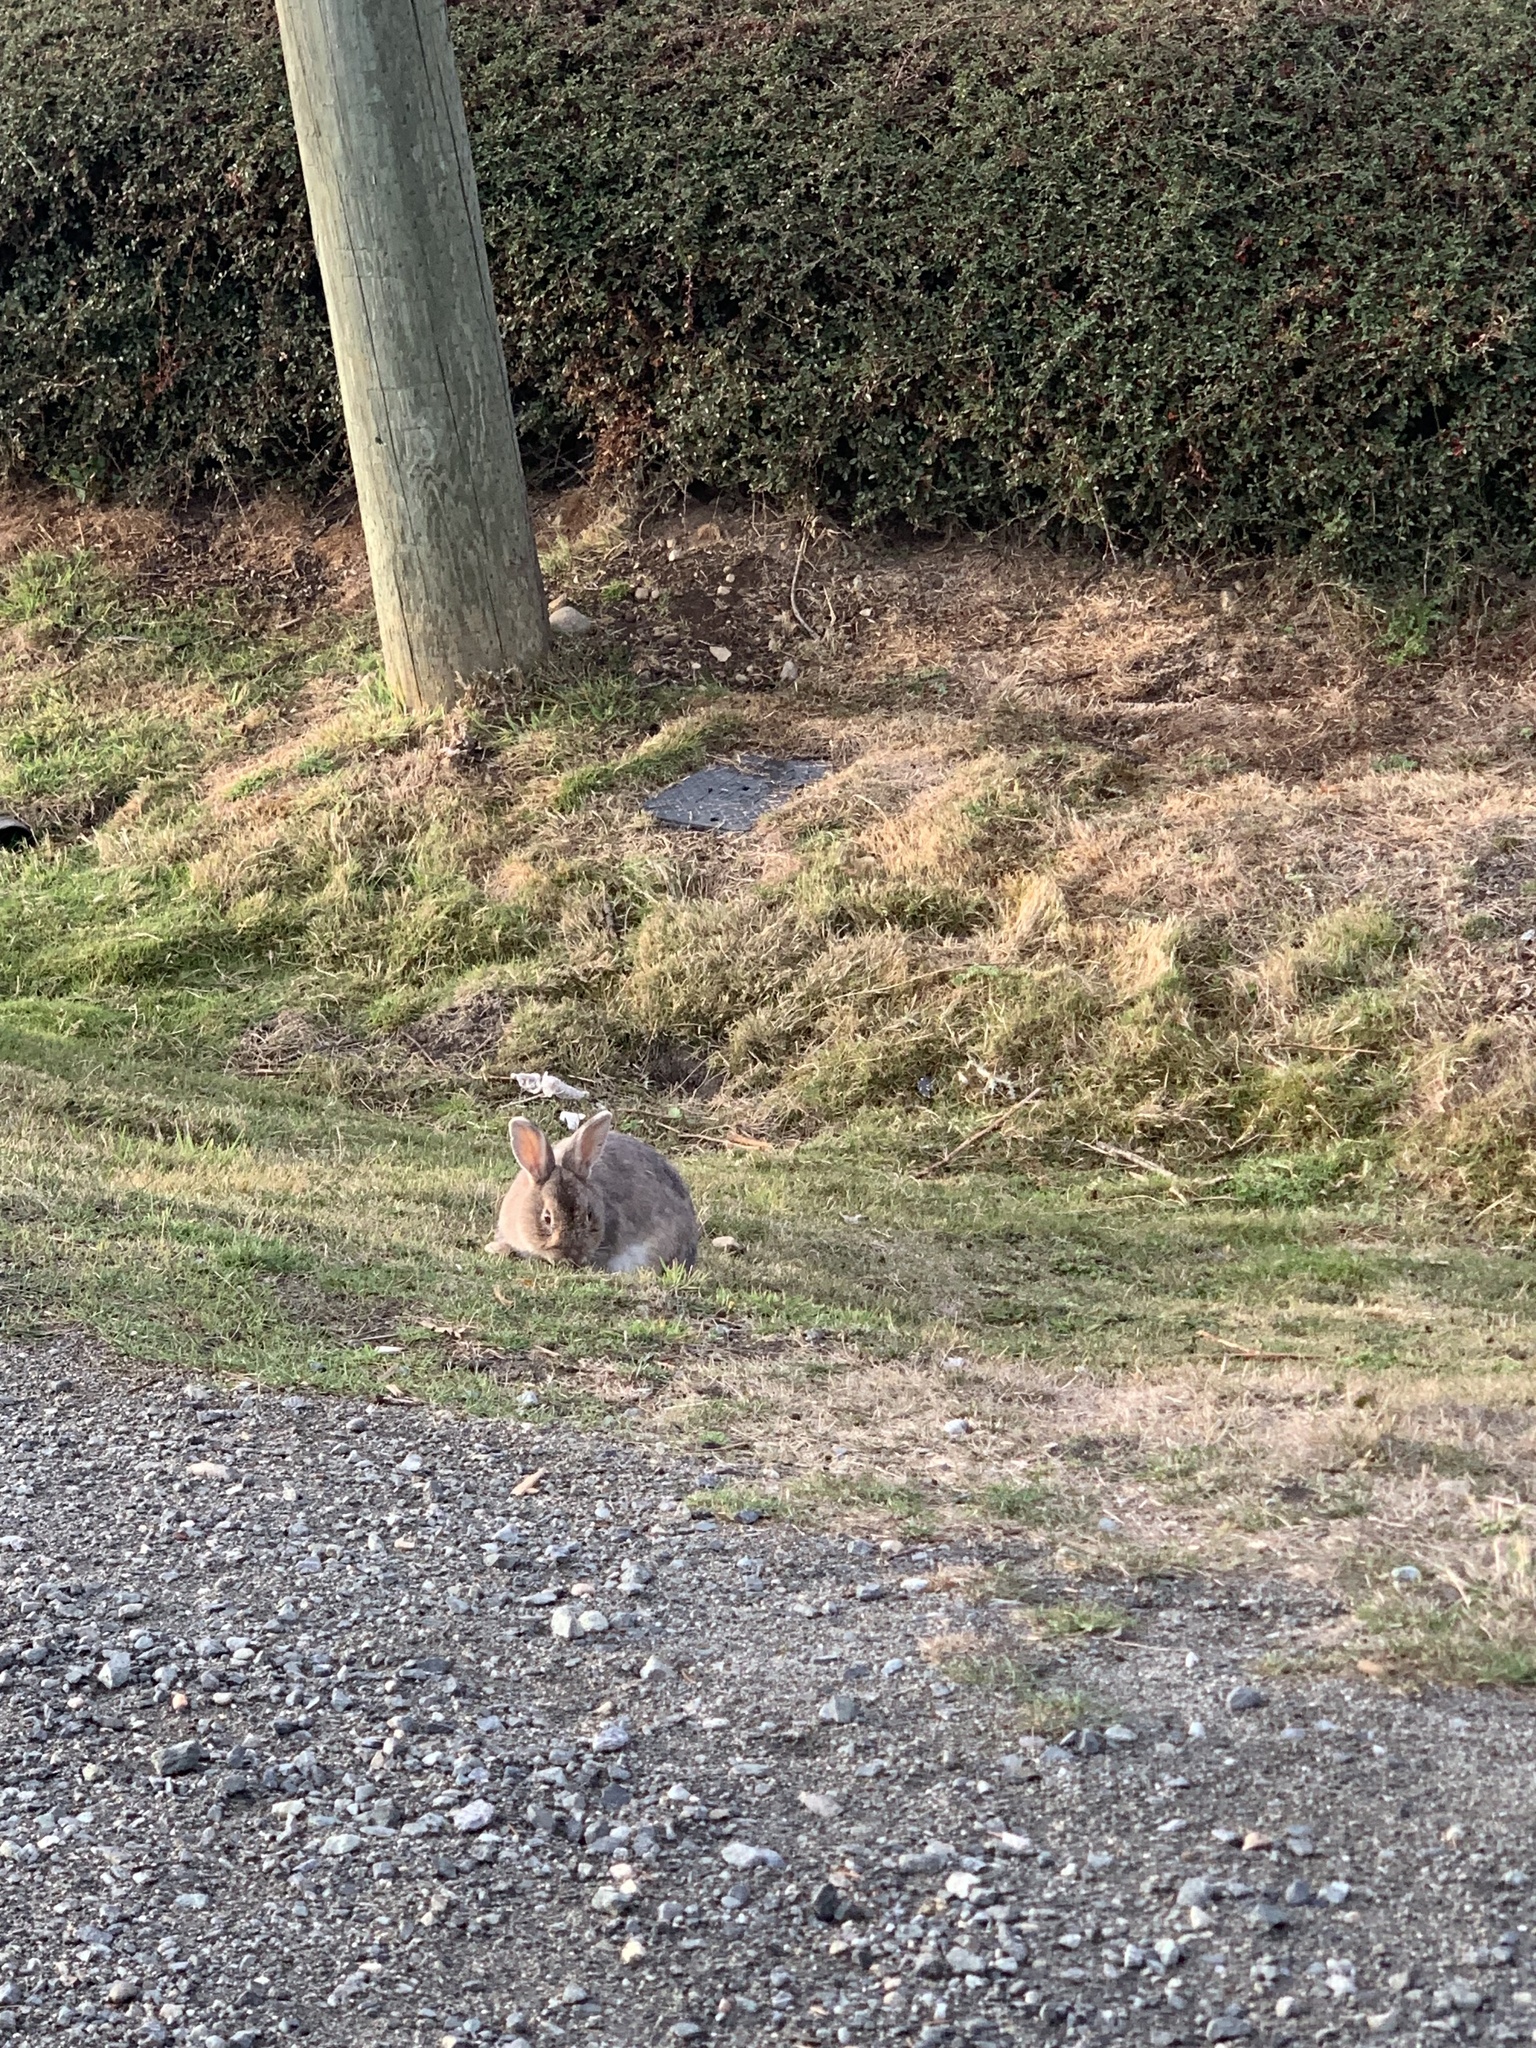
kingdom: Animalia
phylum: Chordata
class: Mammalia
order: Lagomorpha
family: Leporidae
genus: Oryctolagus
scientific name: Oryctolagus cuniculus
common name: European rabbit
